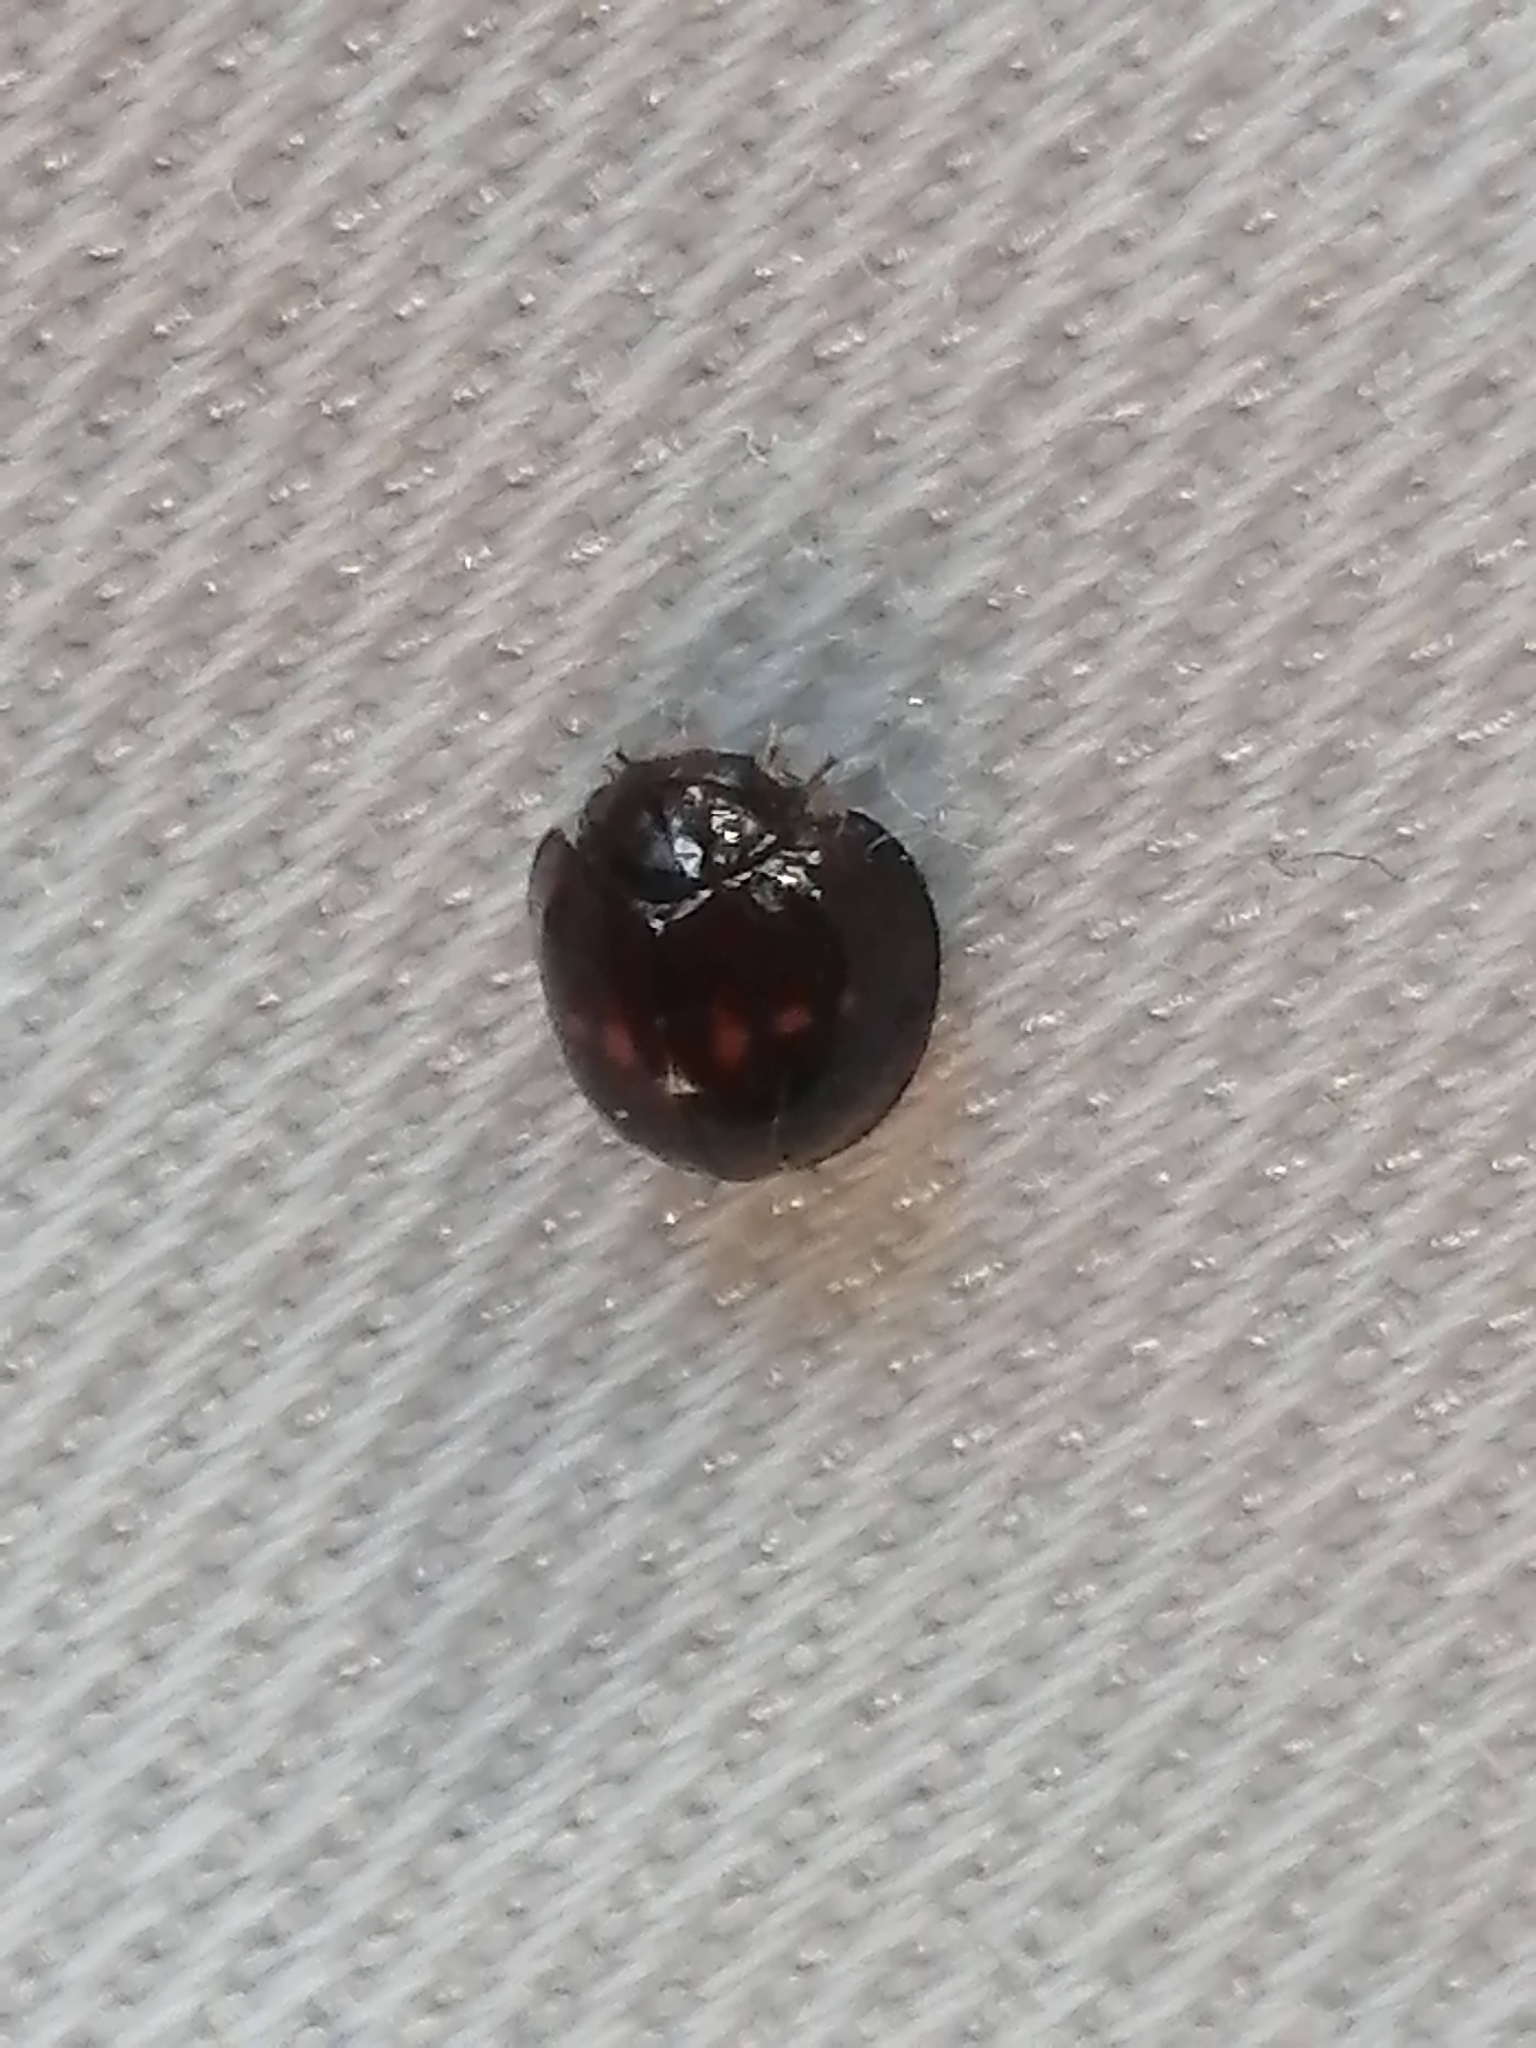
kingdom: Animalia
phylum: Arthropoda
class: Insecta
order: Coleoptera
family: Coccinellidae
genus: Chilocorus
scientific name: Chilocorus bipustulatus
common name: Heather ladybird
